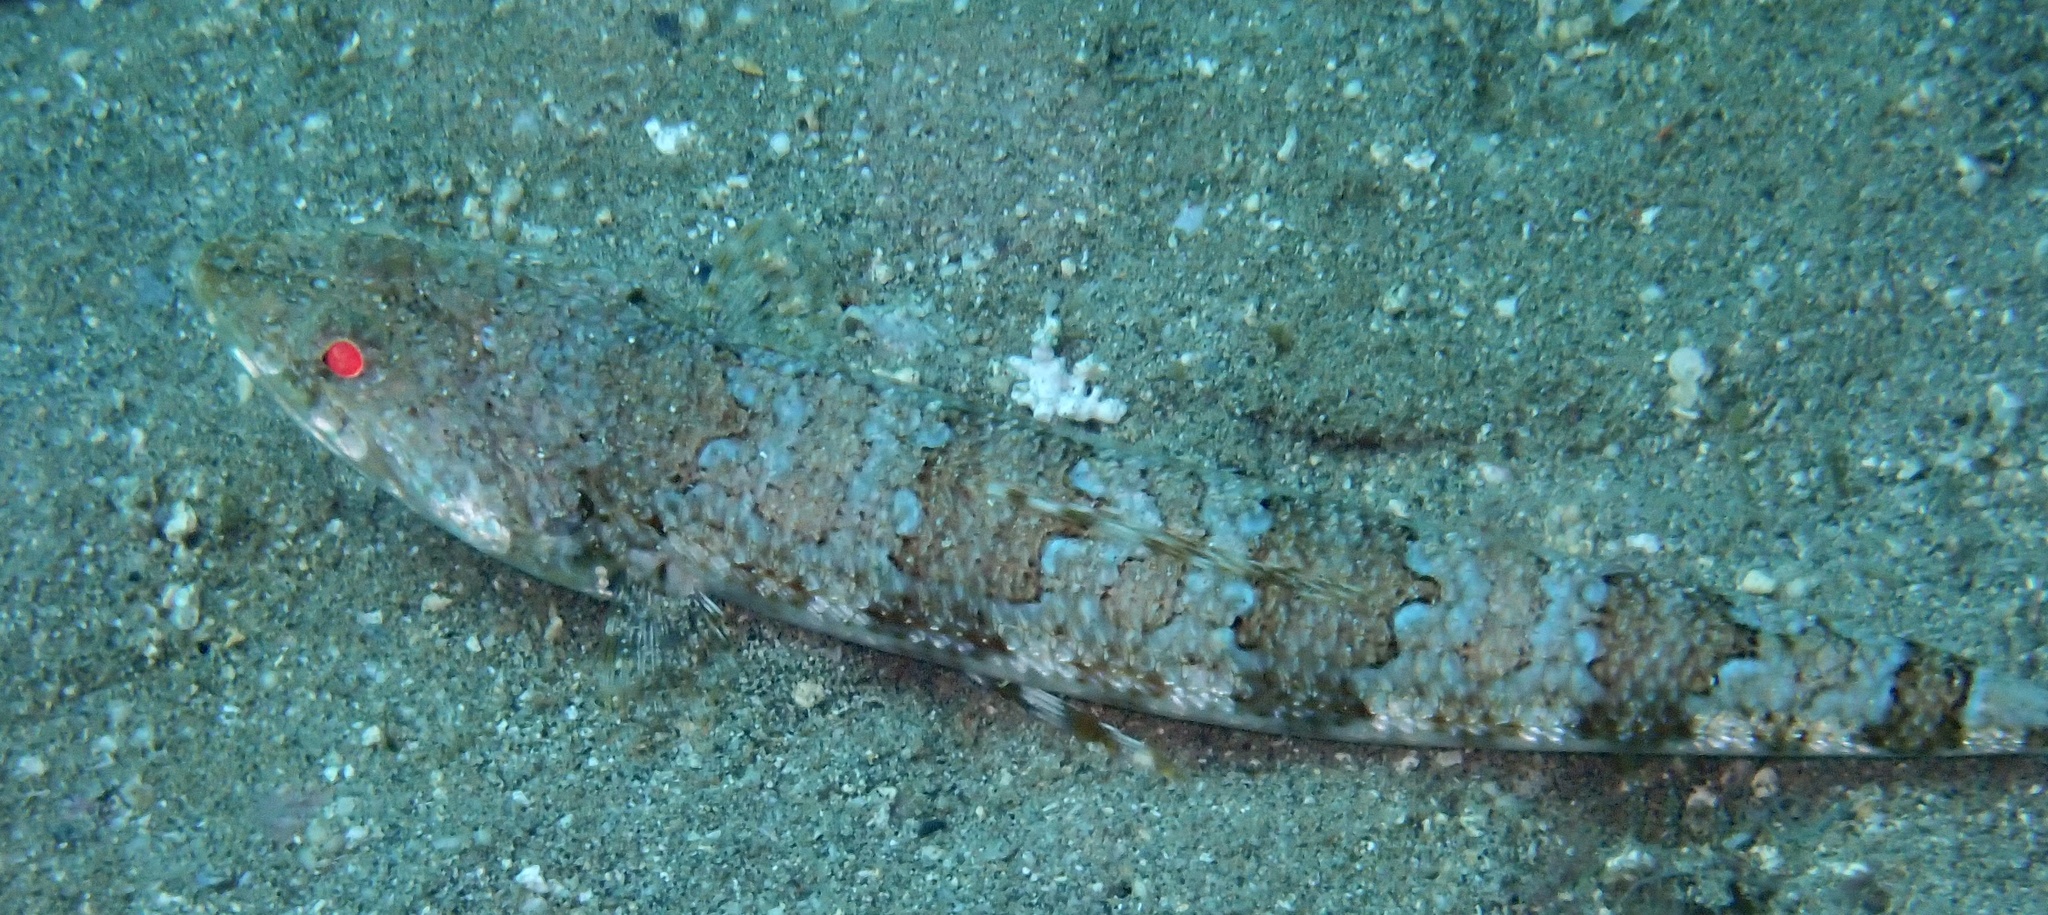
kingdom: Animalia
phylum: Chordata
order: Aulopiformes
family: Synodontidae
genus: Synodus
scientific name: Synodus synodus
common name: Red lizardfish
